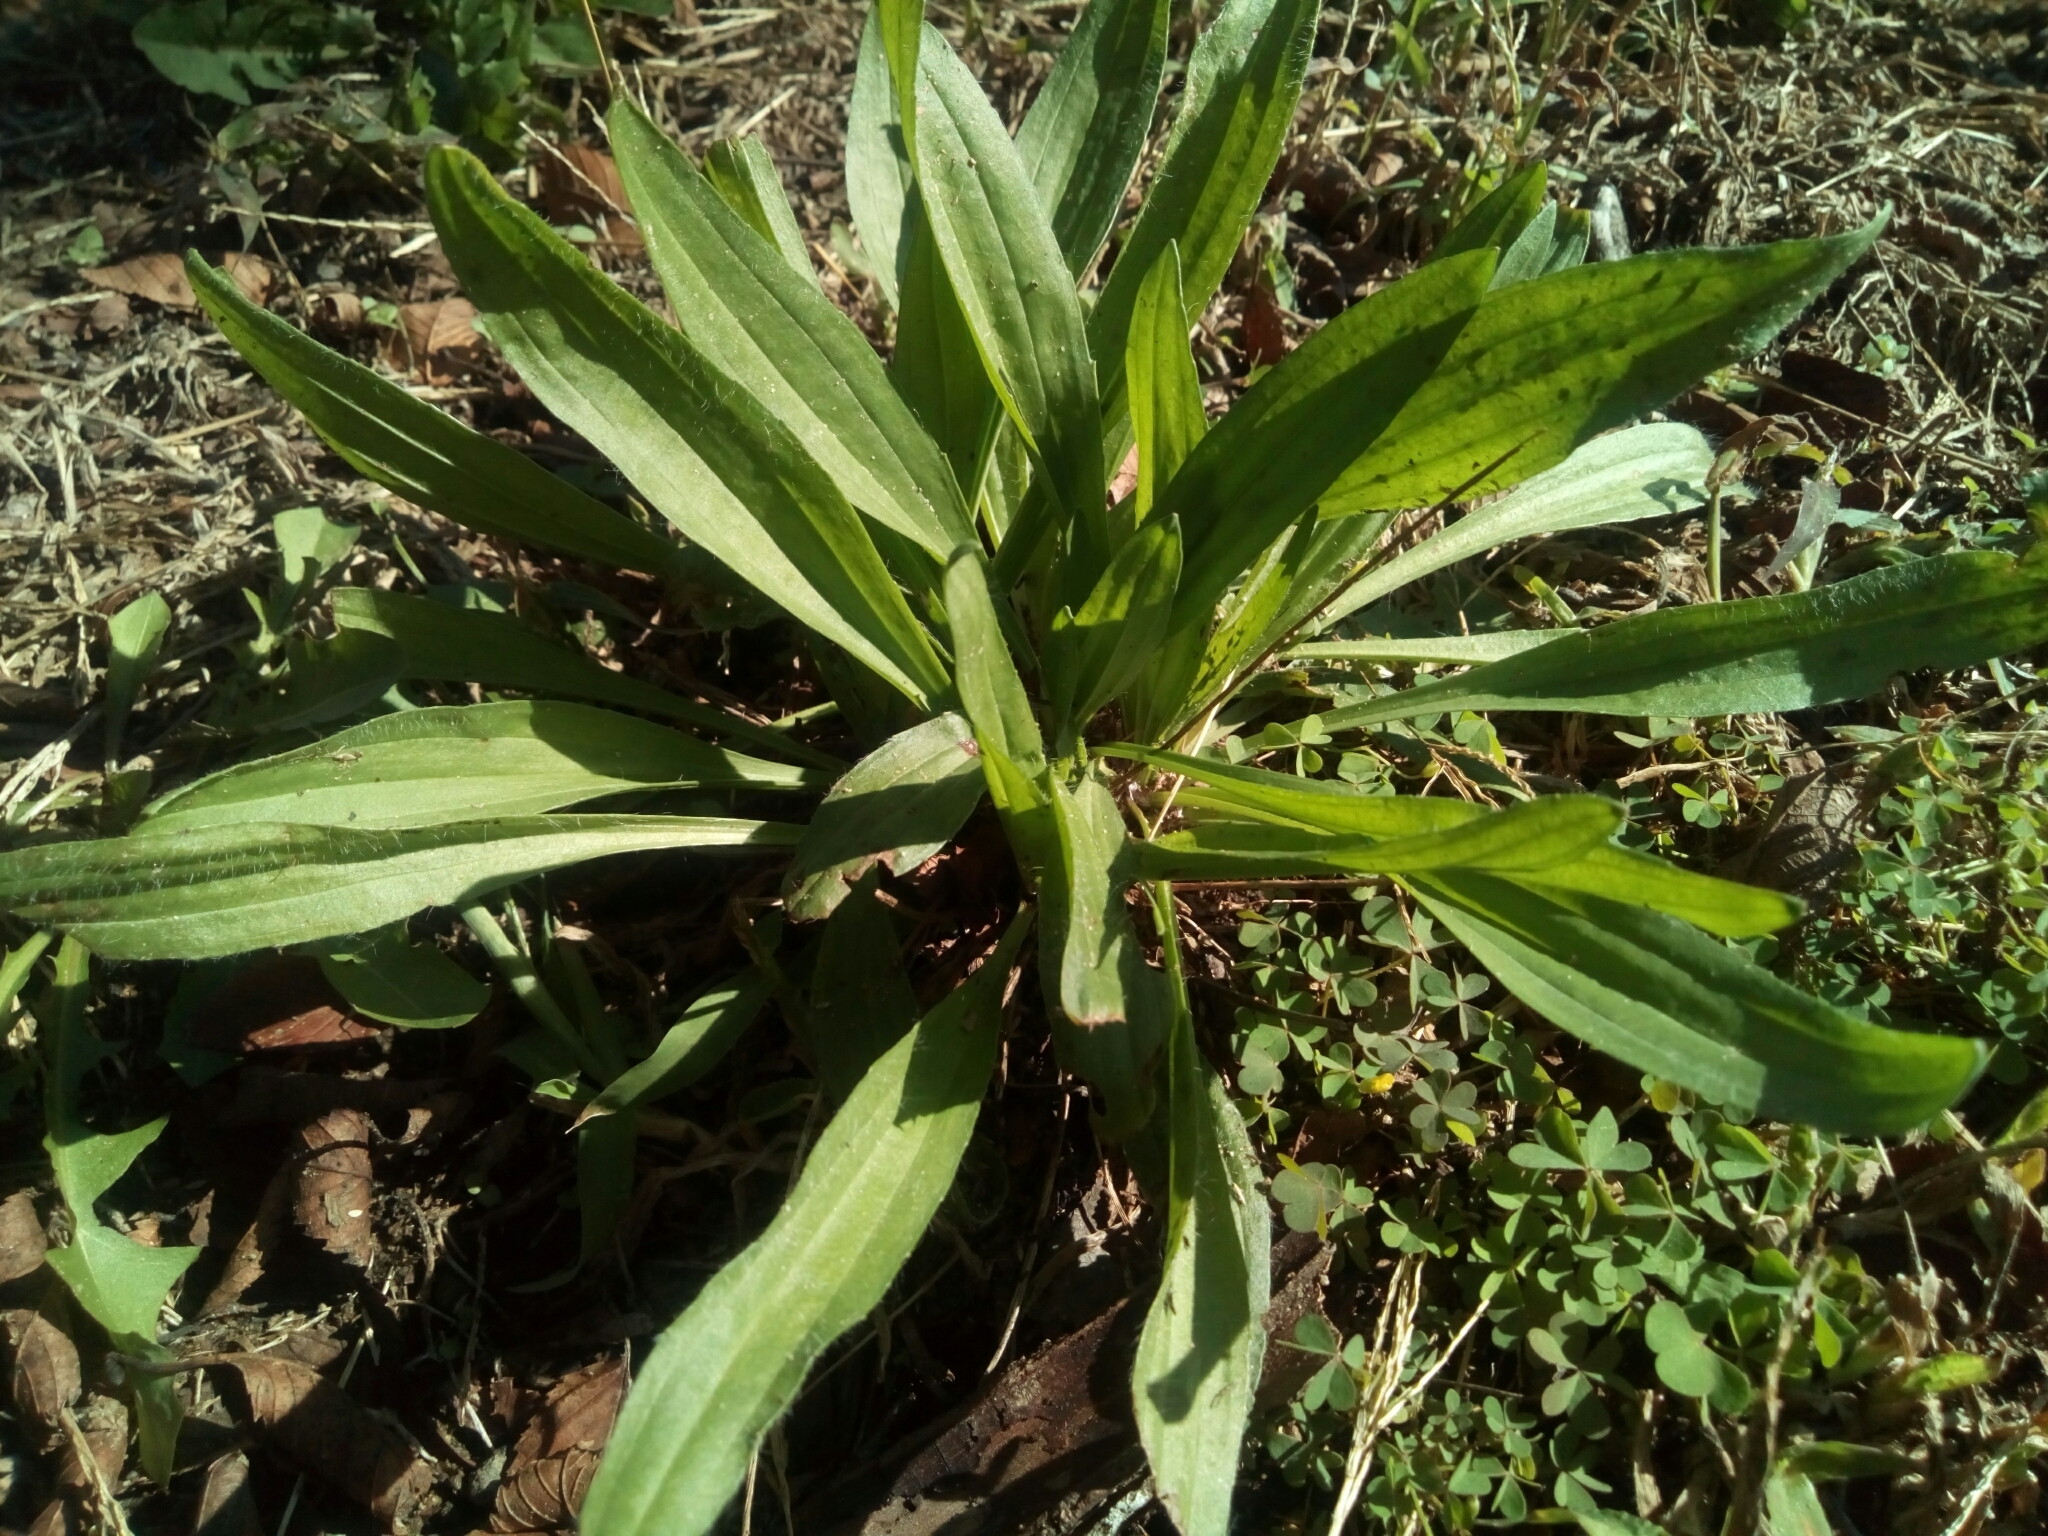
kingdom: Plantae
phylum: Tracheophyta
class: Magnoliopsida
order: Lamiales
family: Plantaginaceae
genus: Plantago
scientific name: Plantago lanceolata
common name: Ribwort plantain
